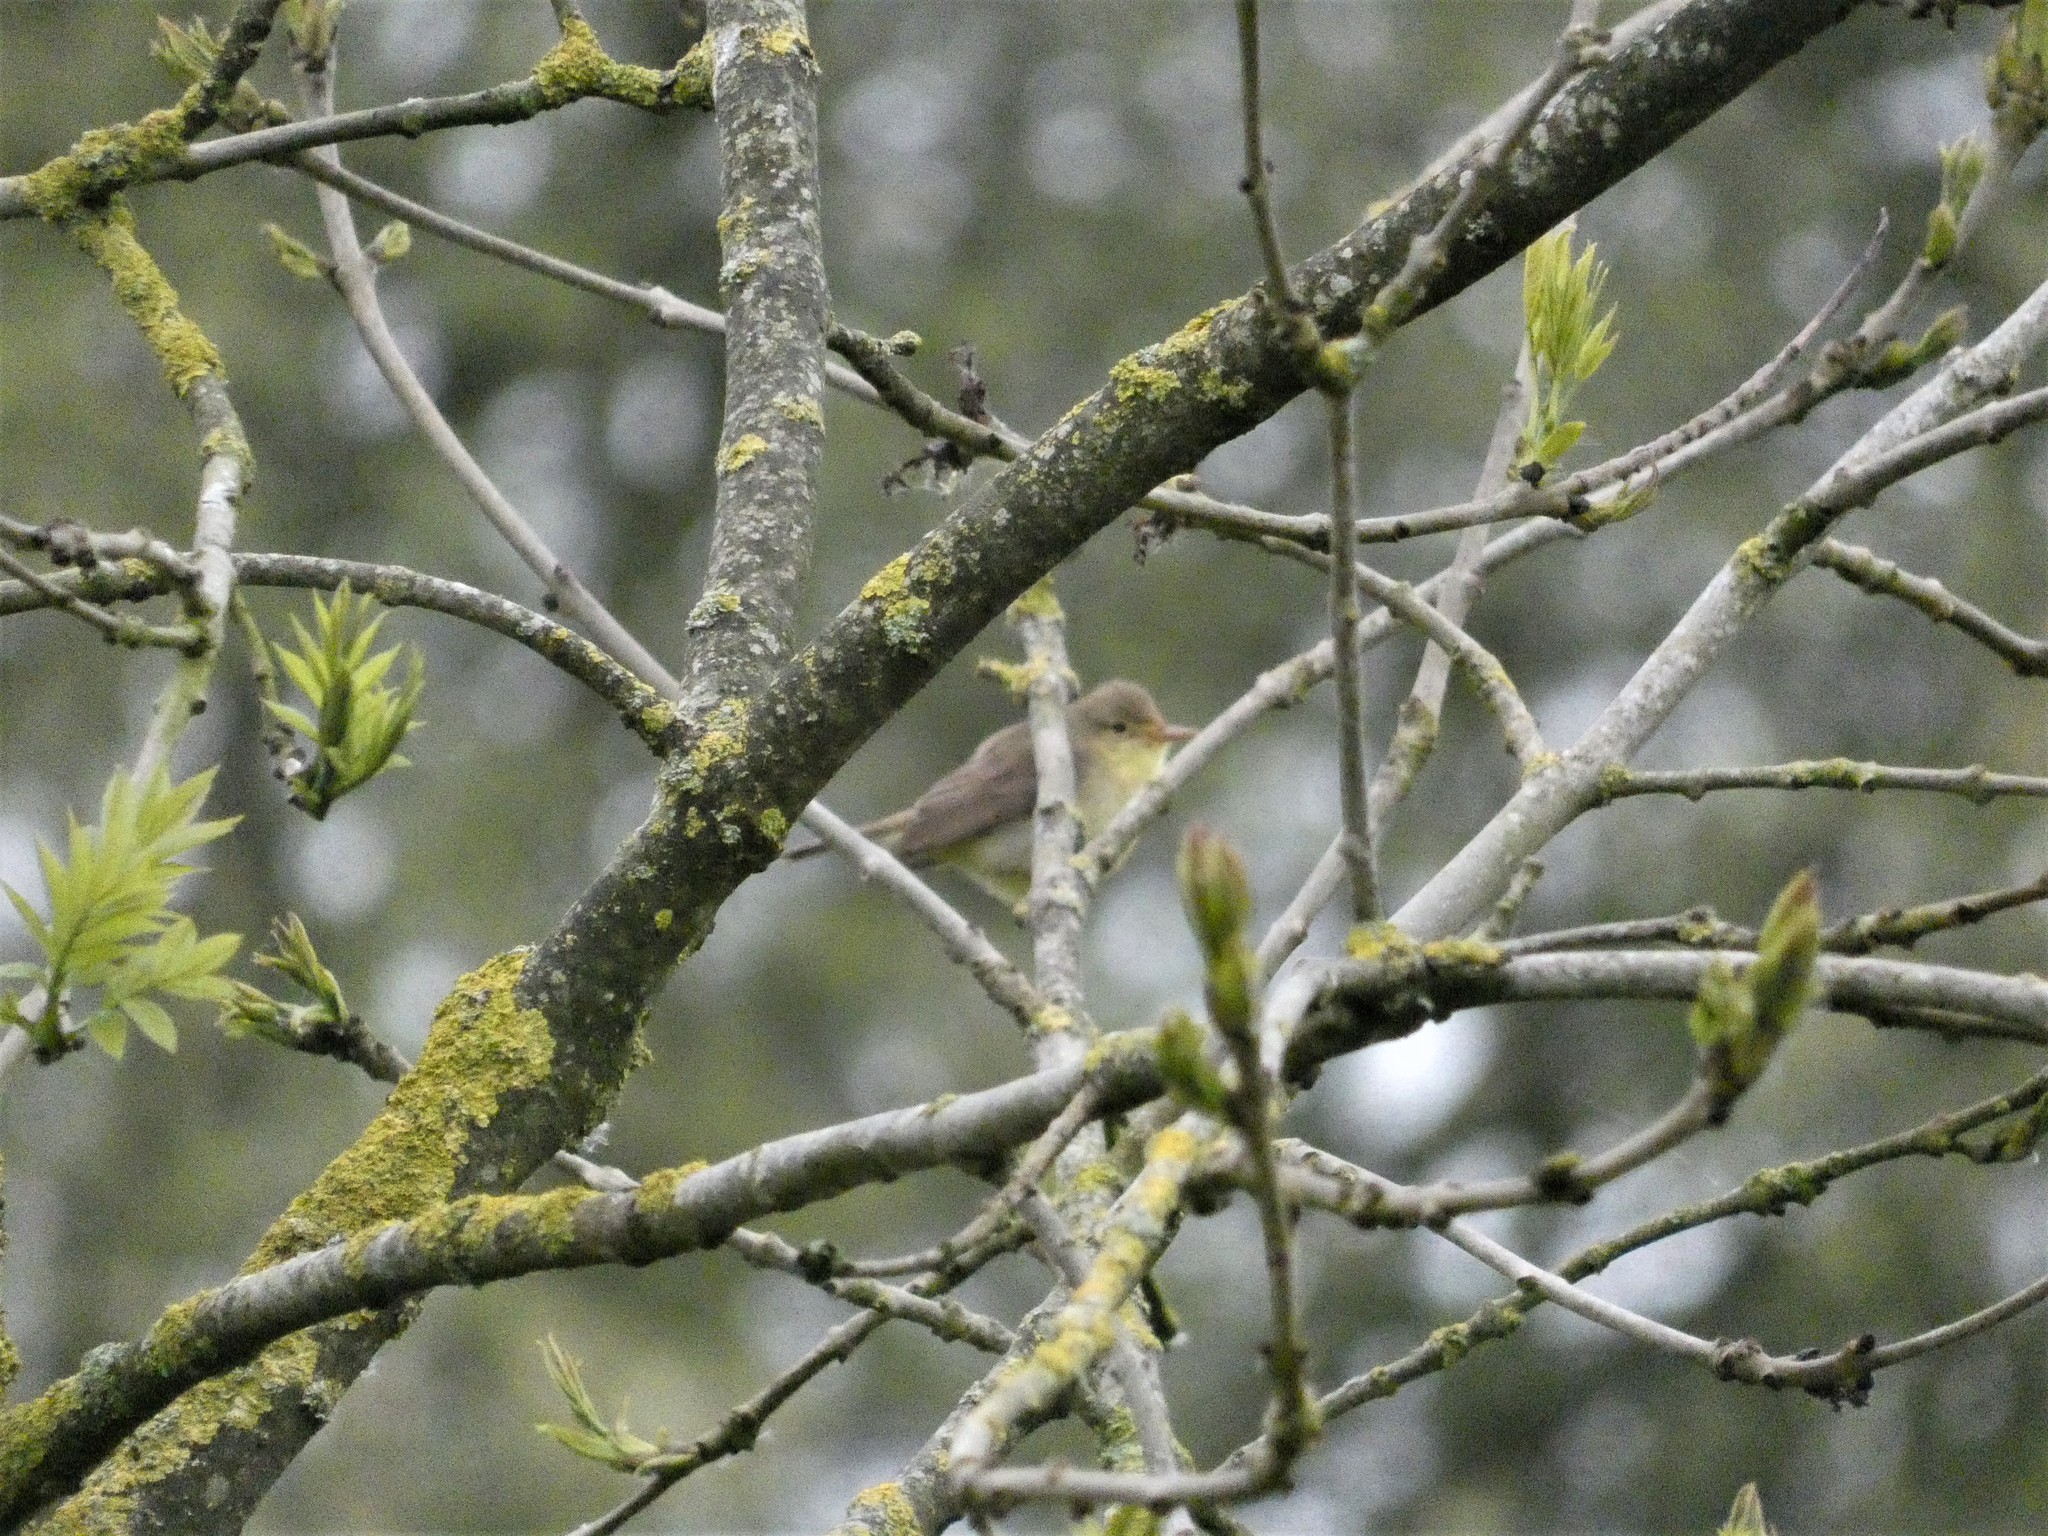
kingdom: Animalia
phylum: Chordata
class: Aves
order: Passeriformes
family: Acrocephalidae
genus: Hippolais
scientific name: Hippolais polyglotta
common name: Melodious warbler
